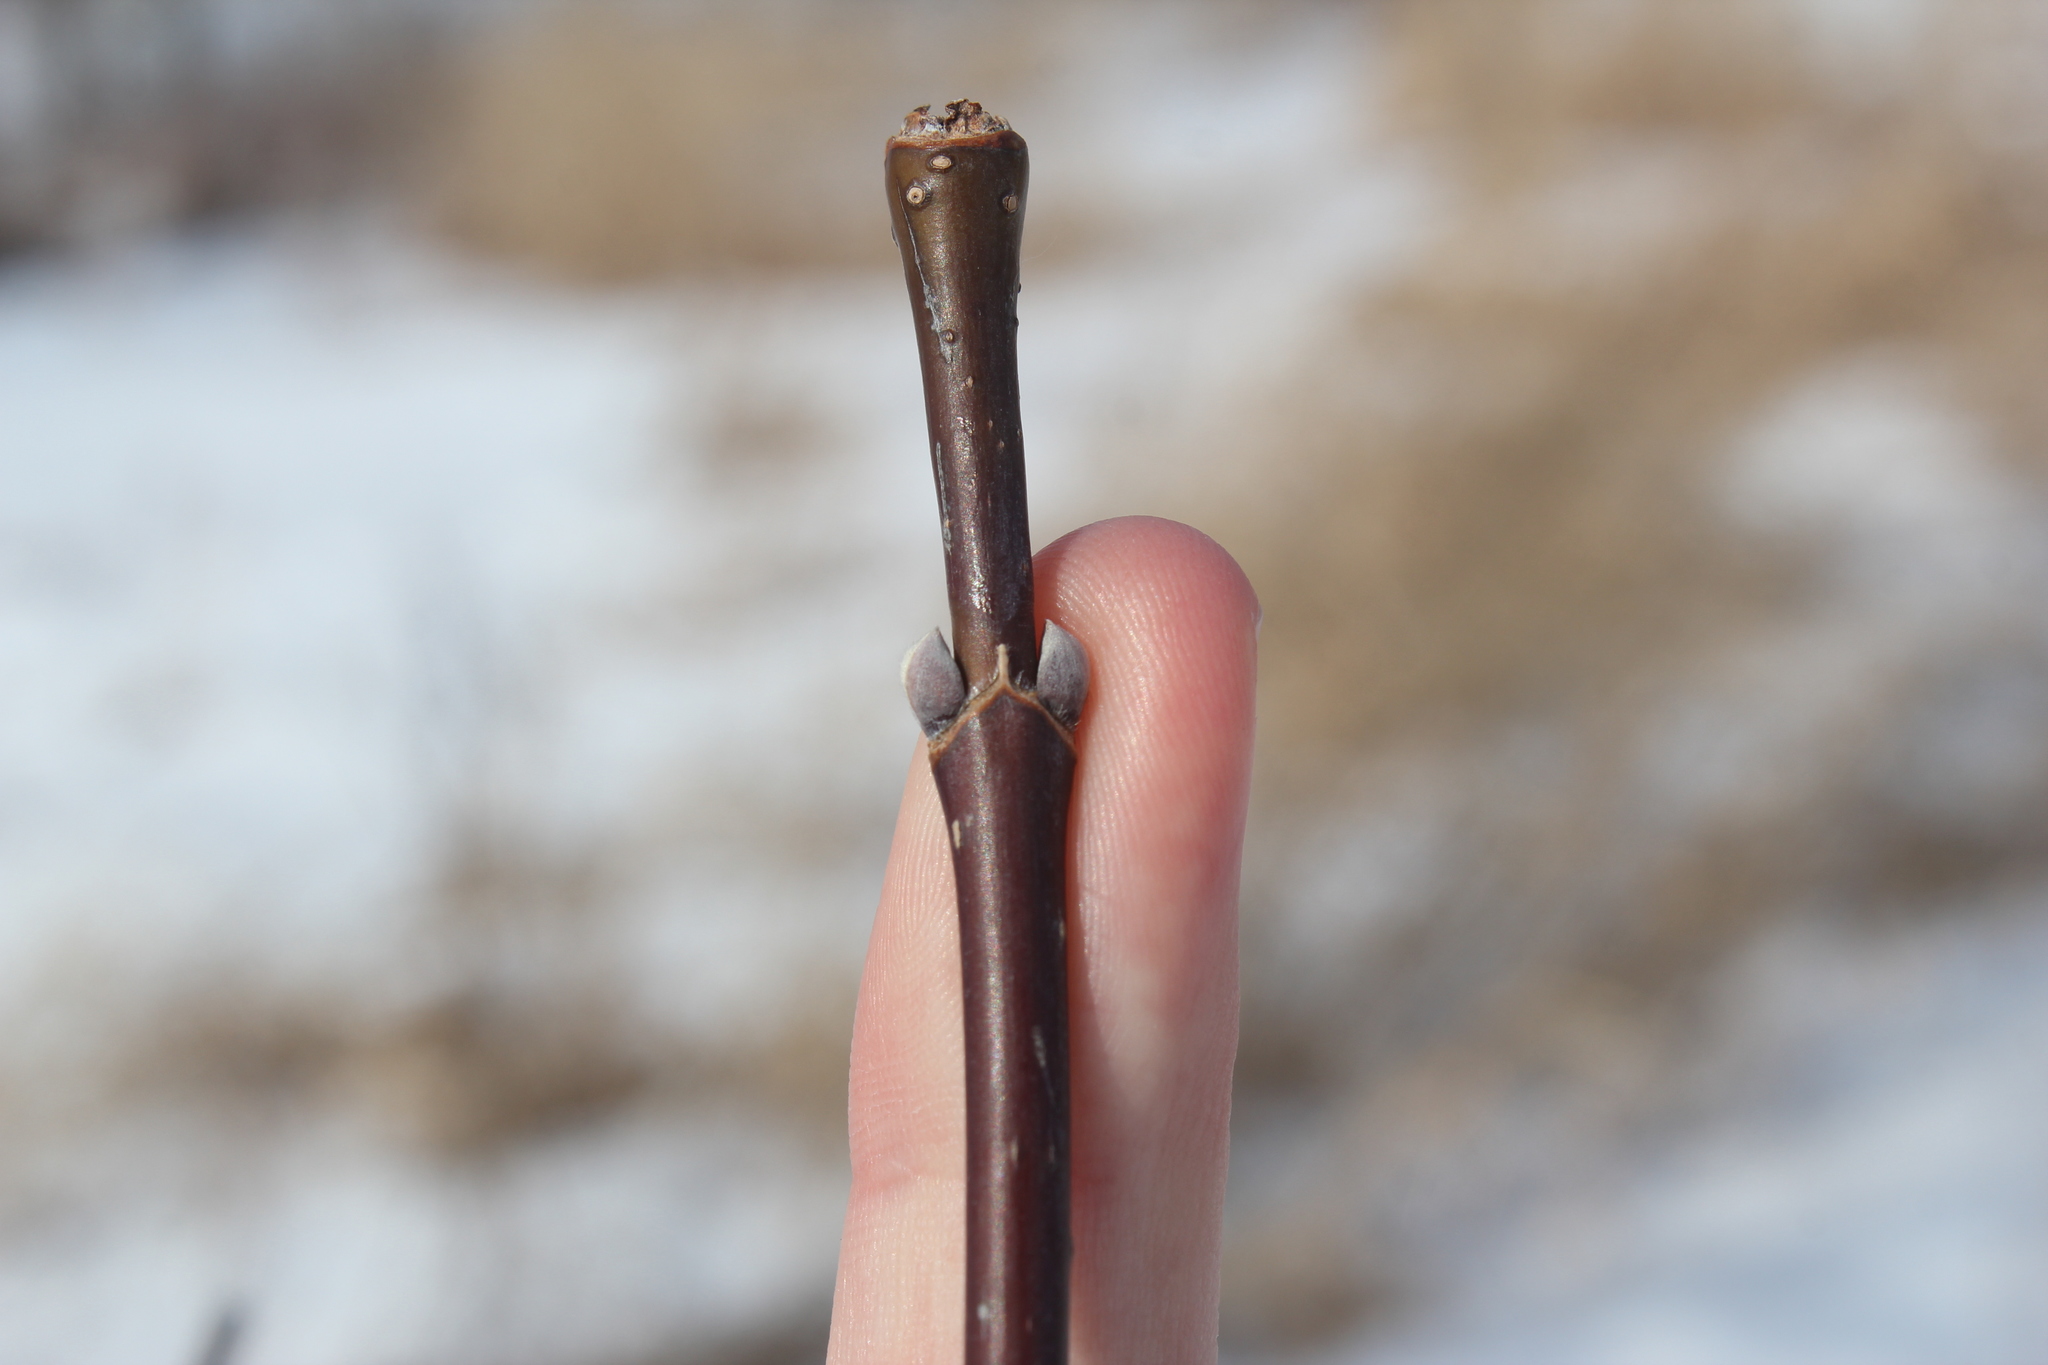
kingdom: Plantae
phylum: Tracheophyta
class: Magnoliopsida
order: Sapindales
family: Sapindaceae
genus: Acer
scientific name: Acer negundo
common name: Ashleaf maple
